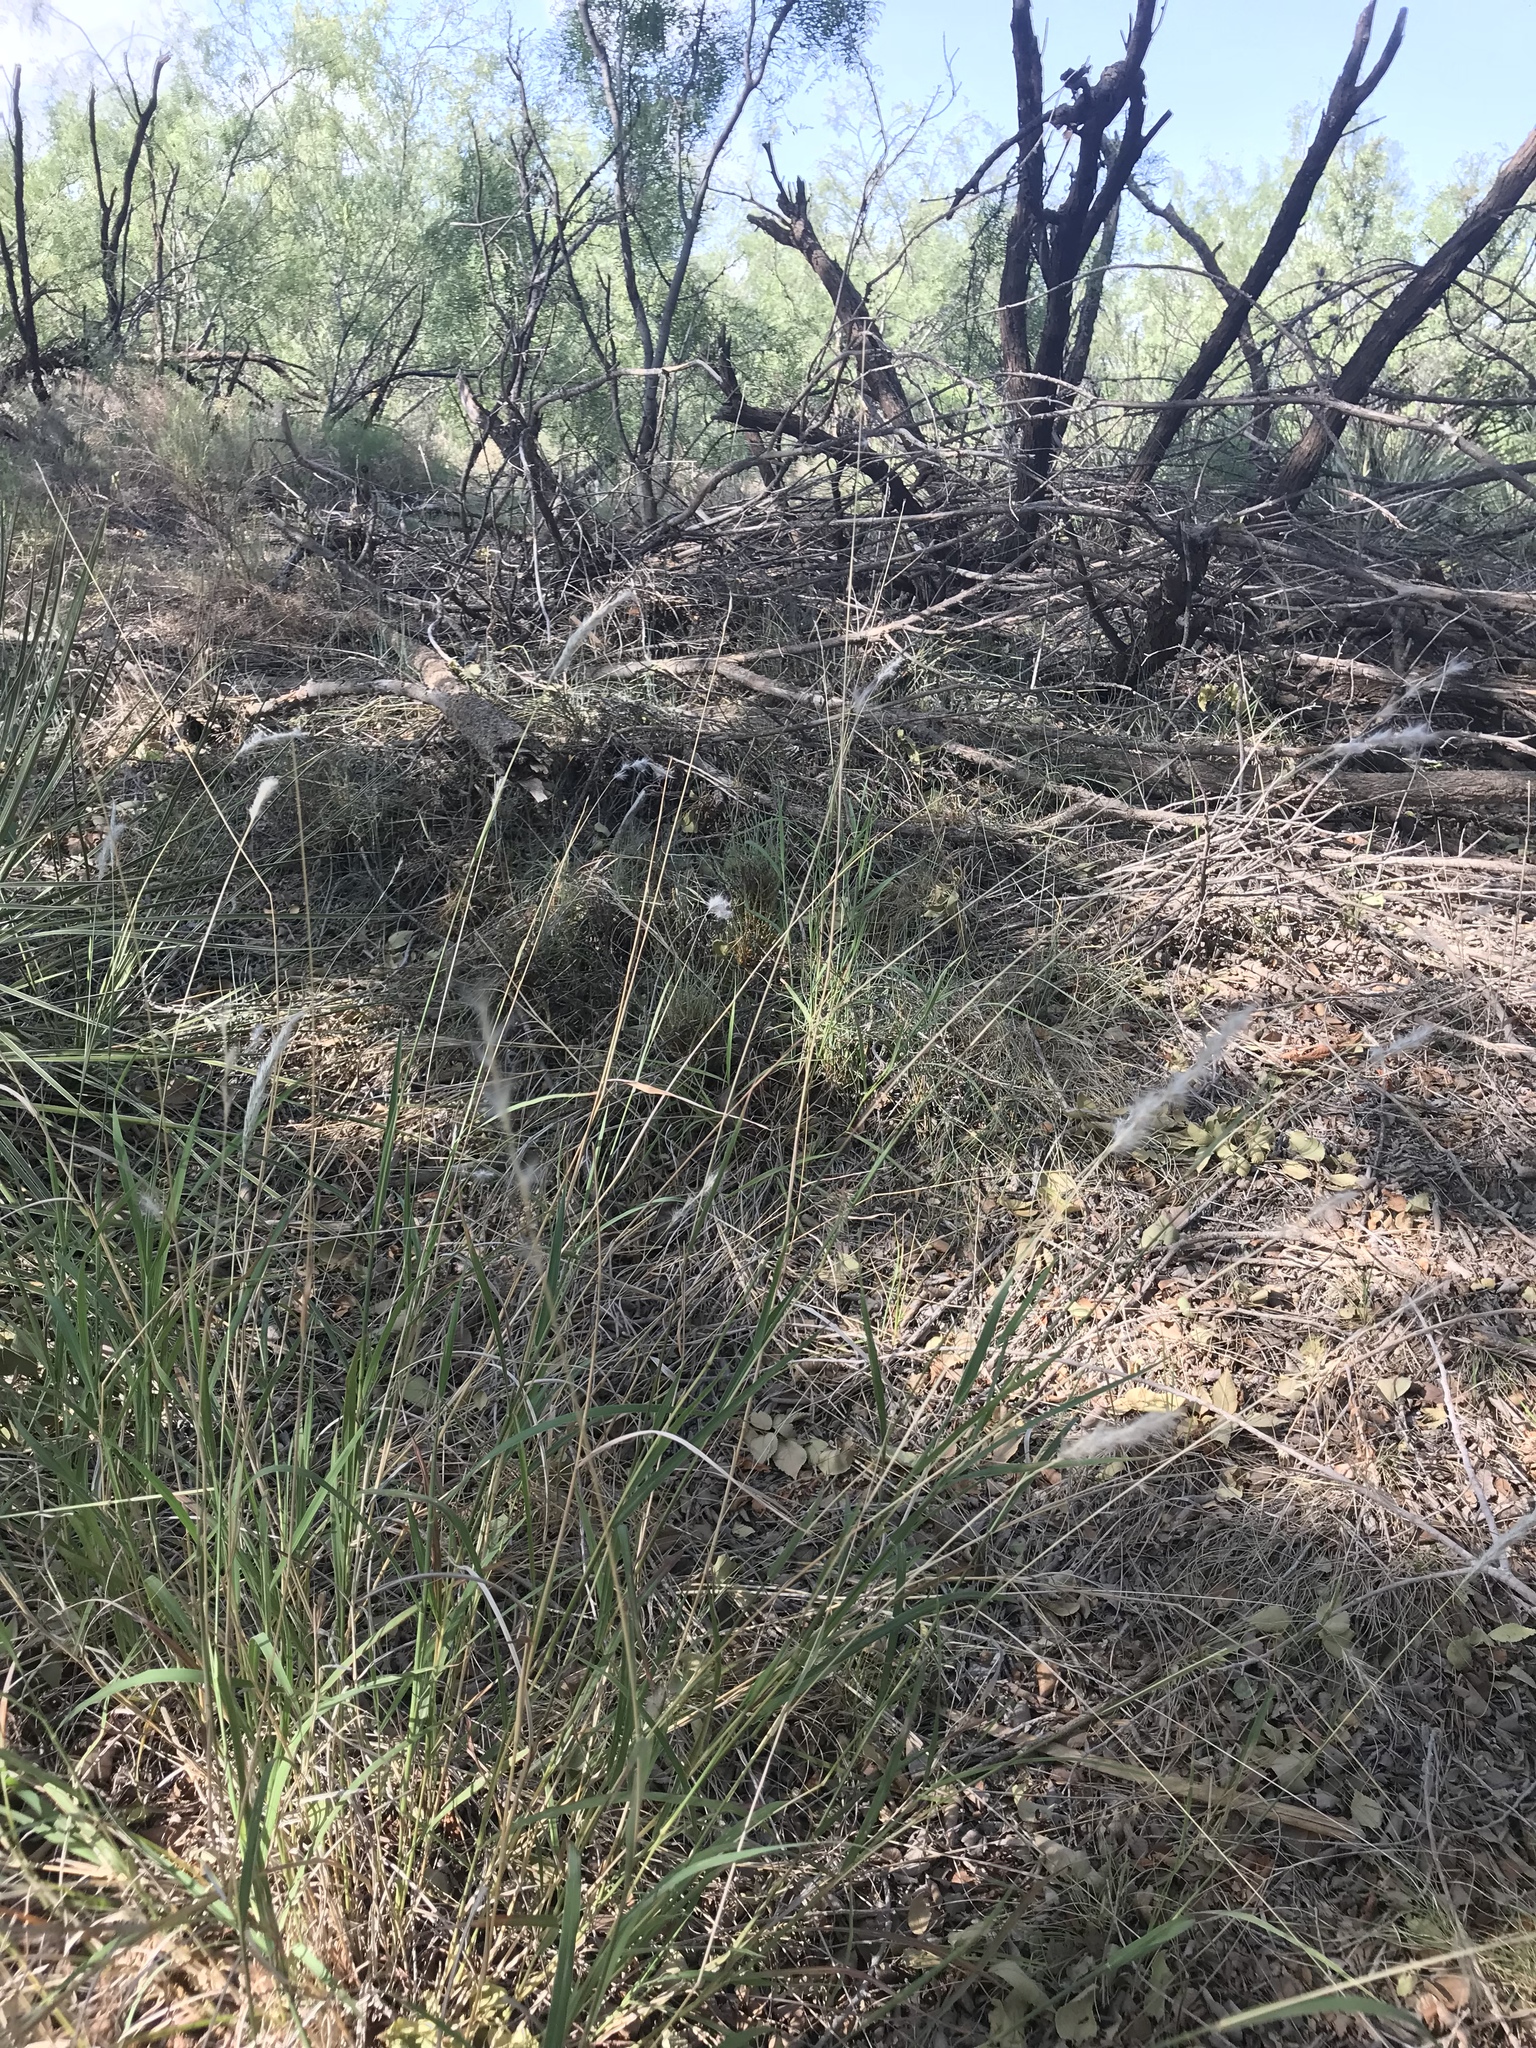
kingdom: Plantae
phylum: Tracheophyta
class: Liliopsida
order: Poales
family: Poaceae
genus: Bothriochloa
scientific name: Bothriochloa torreyana
